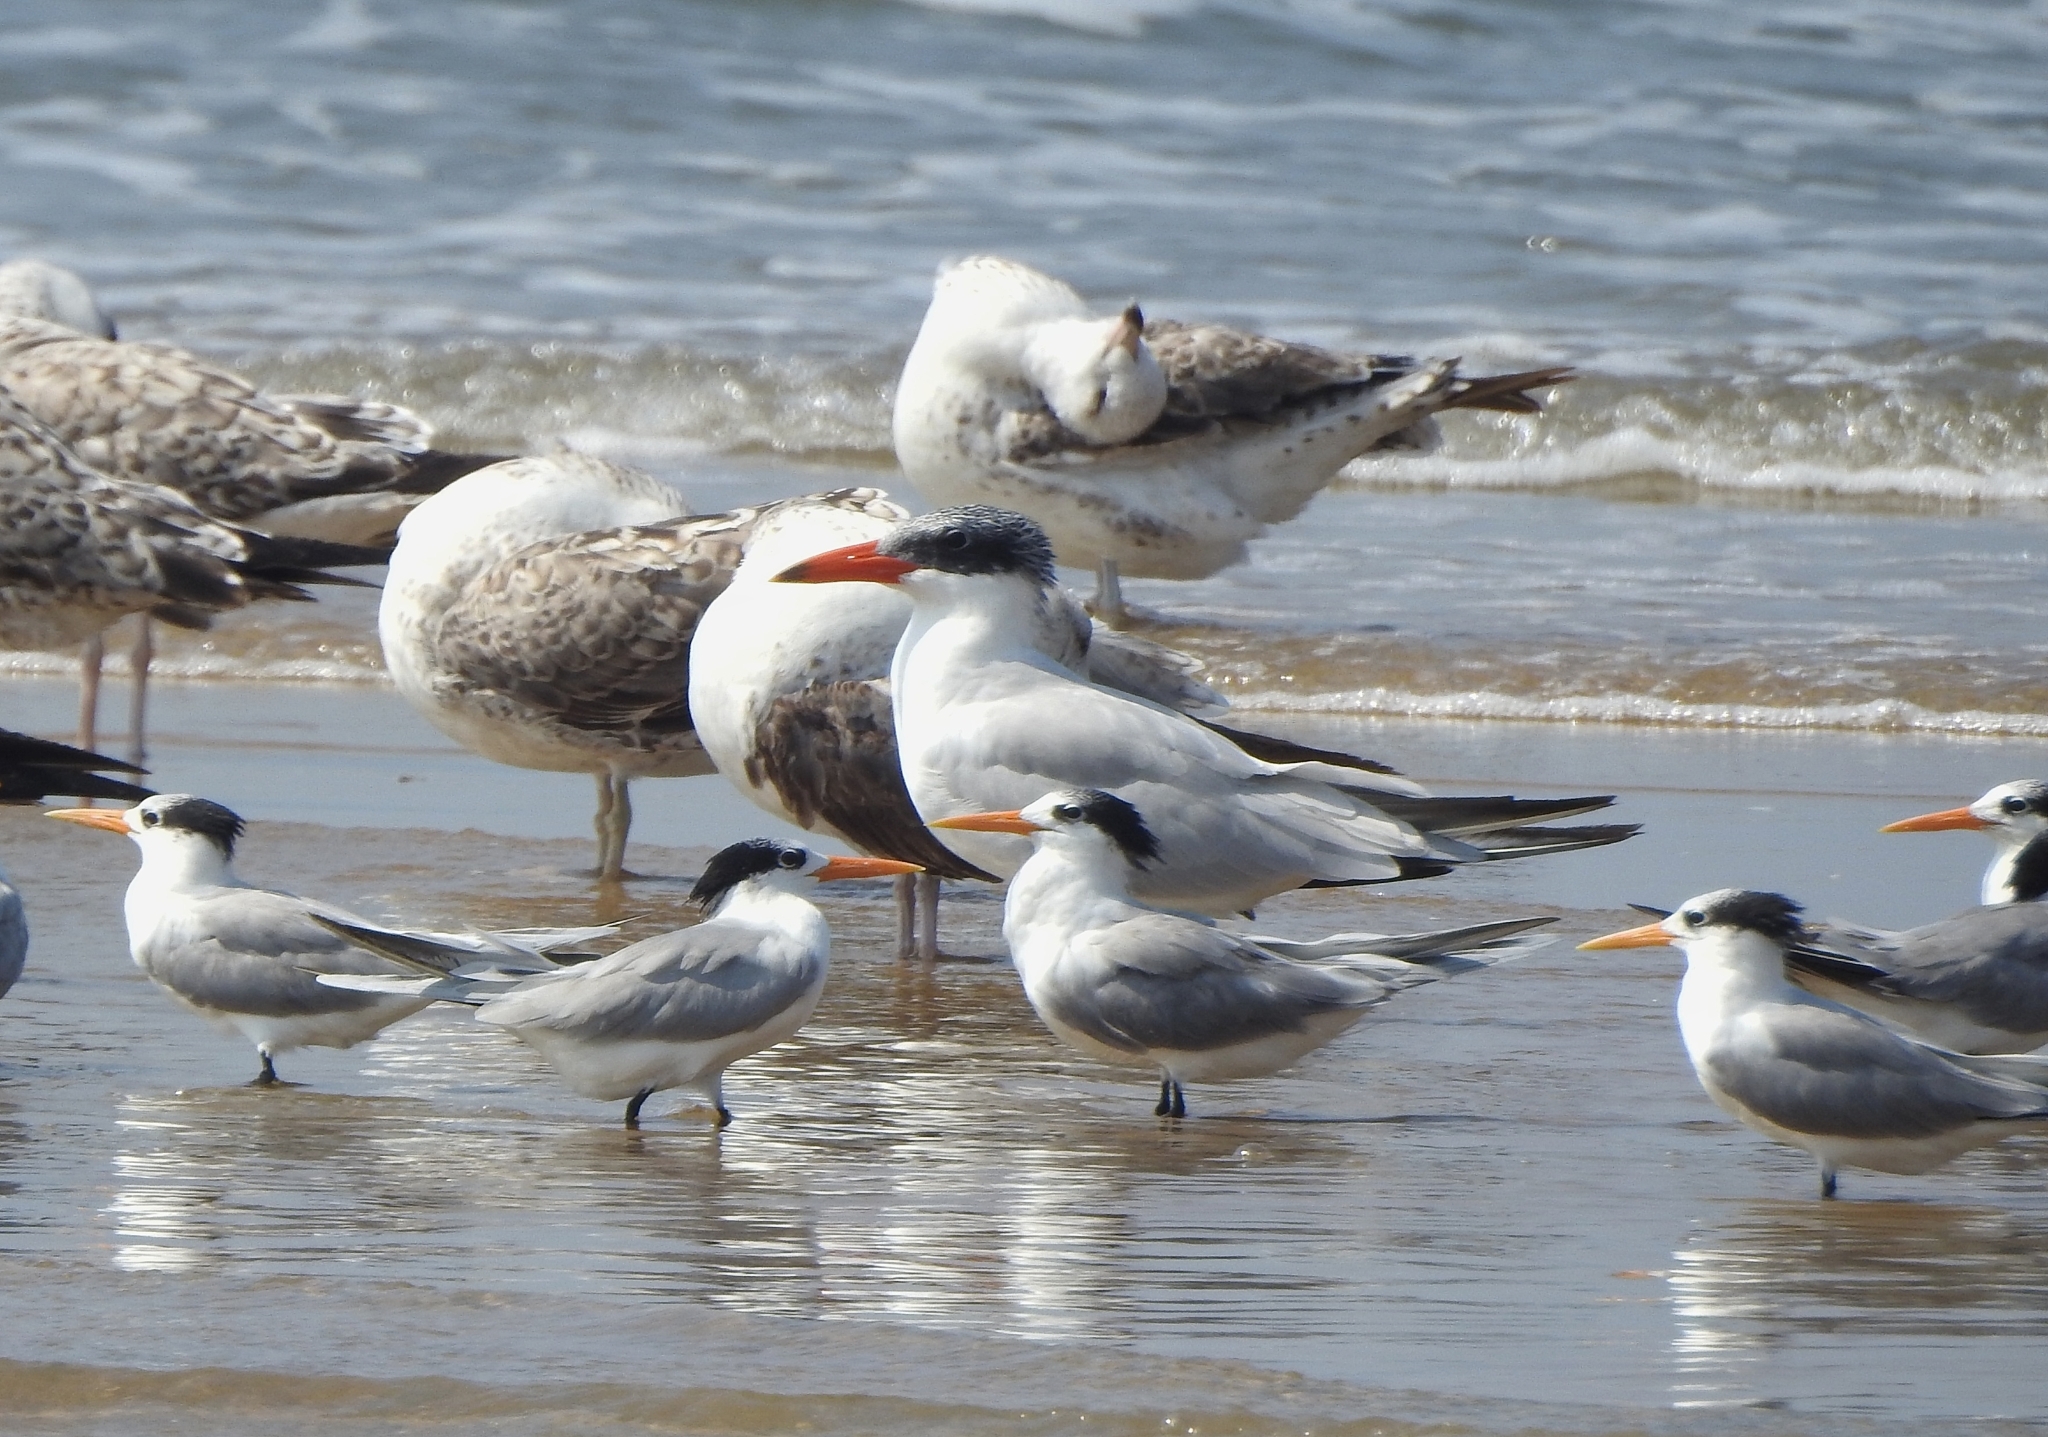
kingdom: Animalia
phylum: Chordata
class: Aves
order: Charadriiformes
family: Laridae
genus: Thalasseus
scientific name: Thalasseus bengalensis
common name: Lesser crested tern
